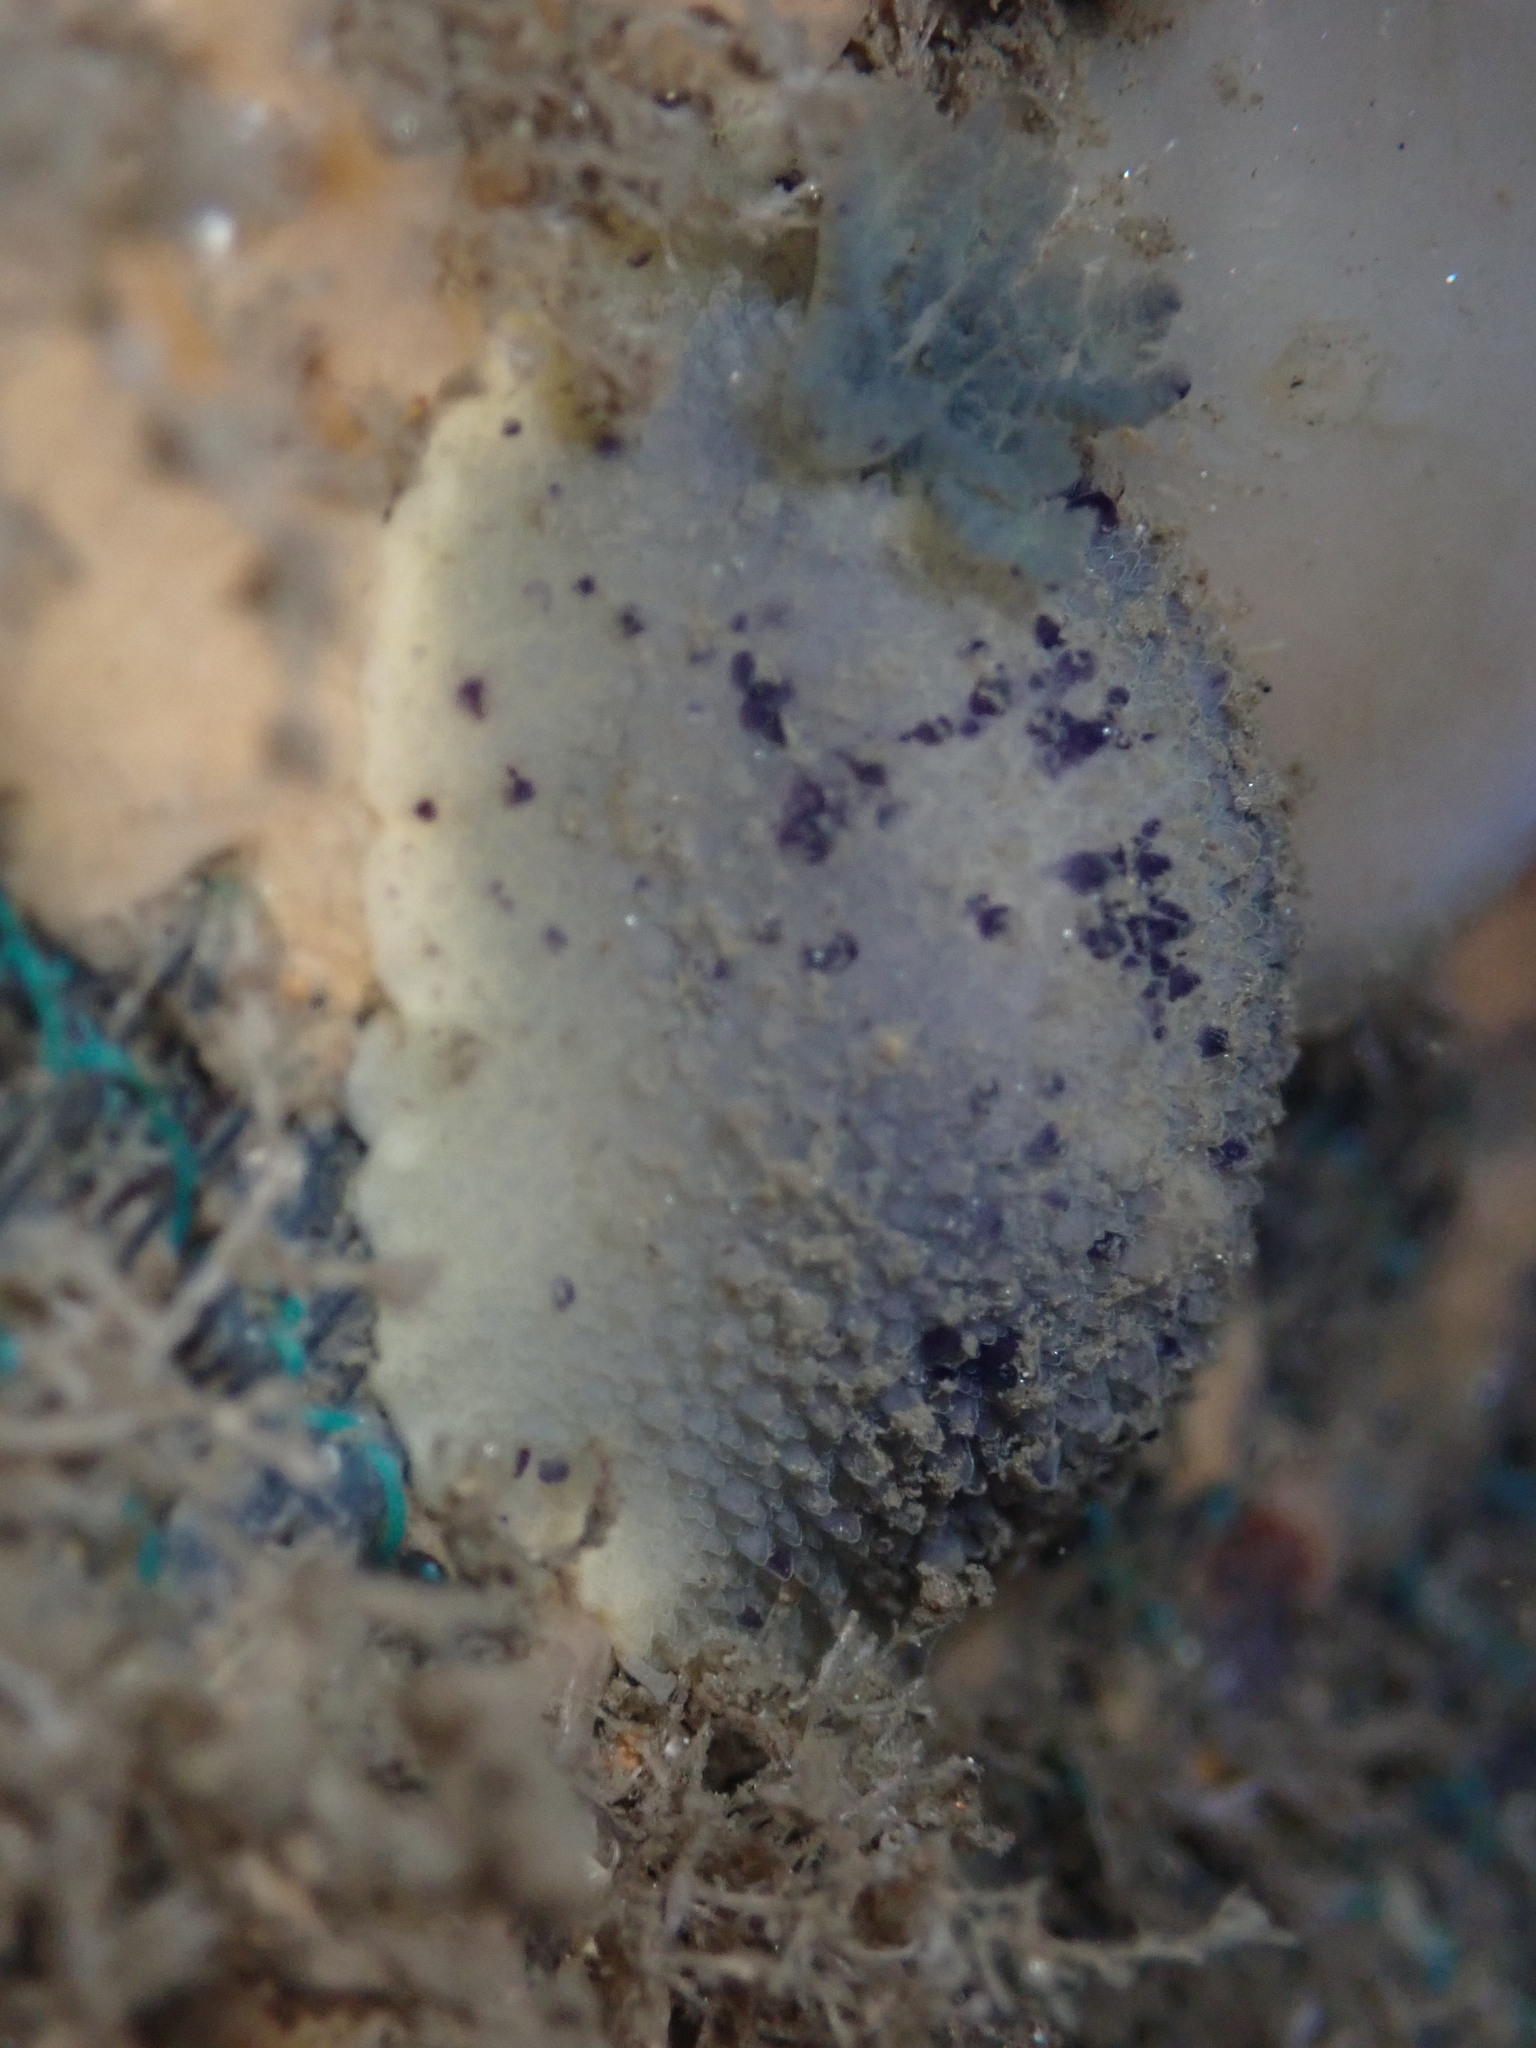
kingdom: Animalia
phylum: Mollusca
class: Gastropoda
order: Nudibranchia
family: Dorididae
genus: Doris
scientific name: Doris montereyensis
